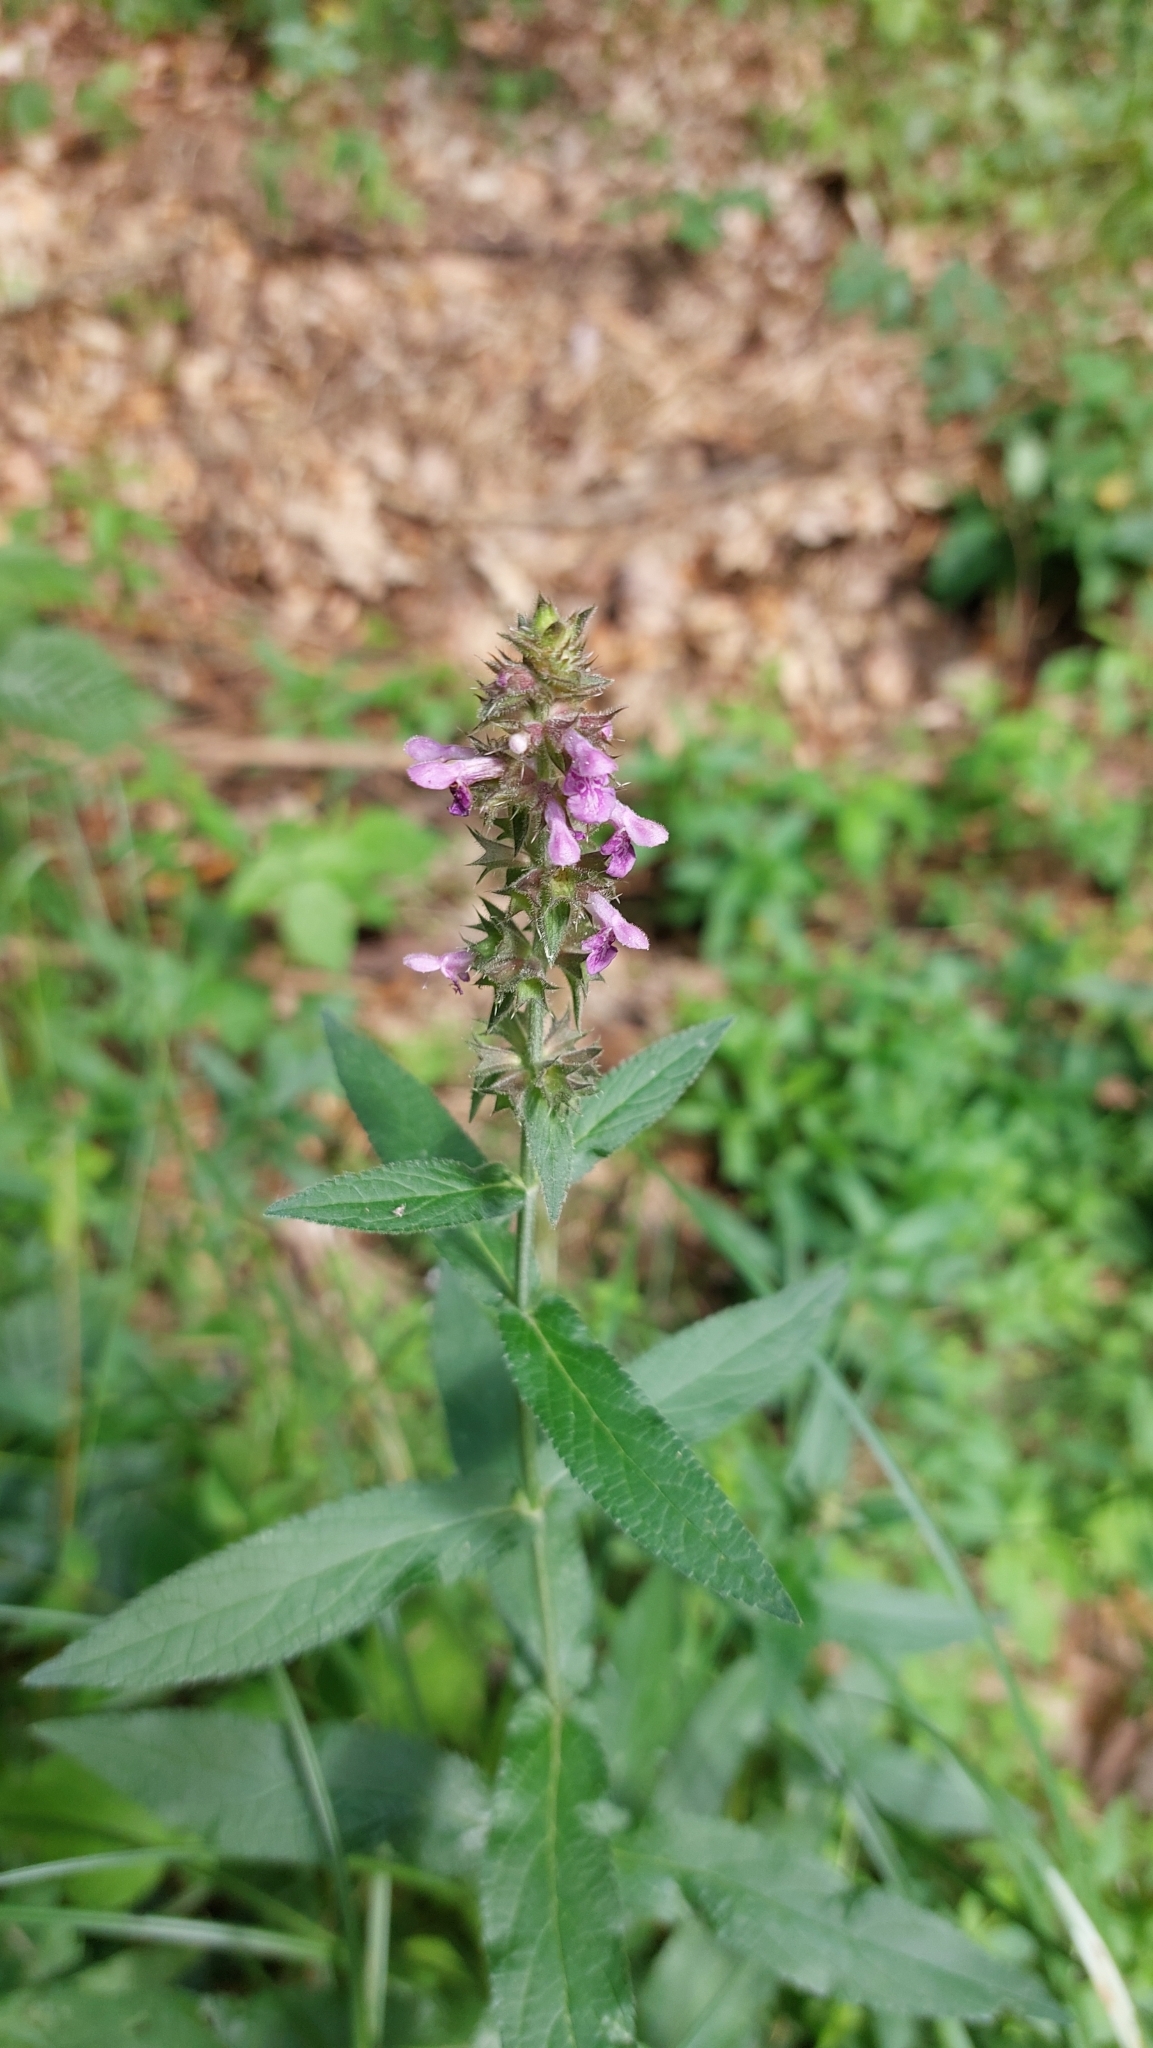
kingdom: Plantae
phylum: Tracheophyta
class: Magnoliopsida
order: Lamiales
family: Lamiaceae
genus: Stachys
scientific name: Stachys palustris
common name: Marsh woundwort
